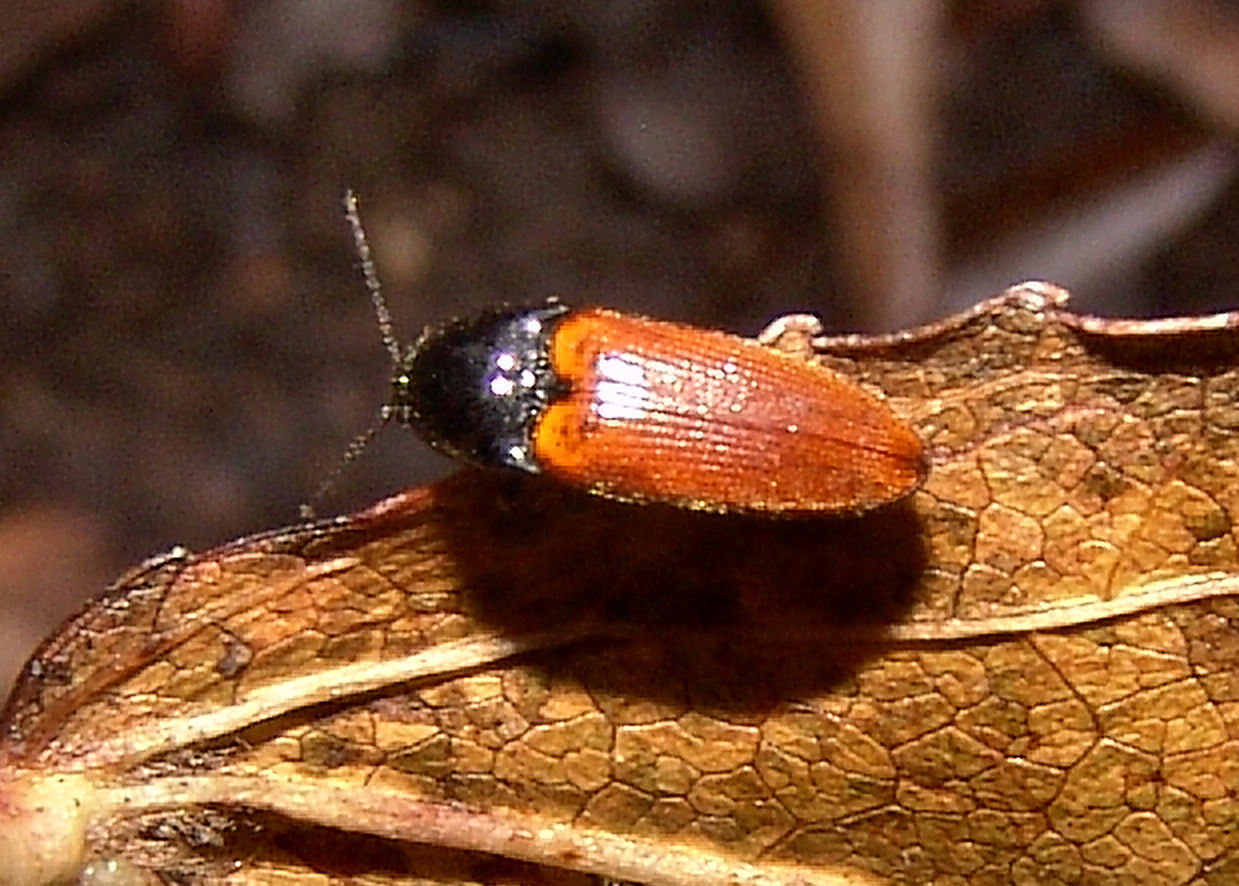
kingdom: Animalia
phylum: Arthropoda
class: Insecta
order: Coleoptera
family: Elateridae
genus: Ampedus
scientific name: Ampedus sanguinipennis
